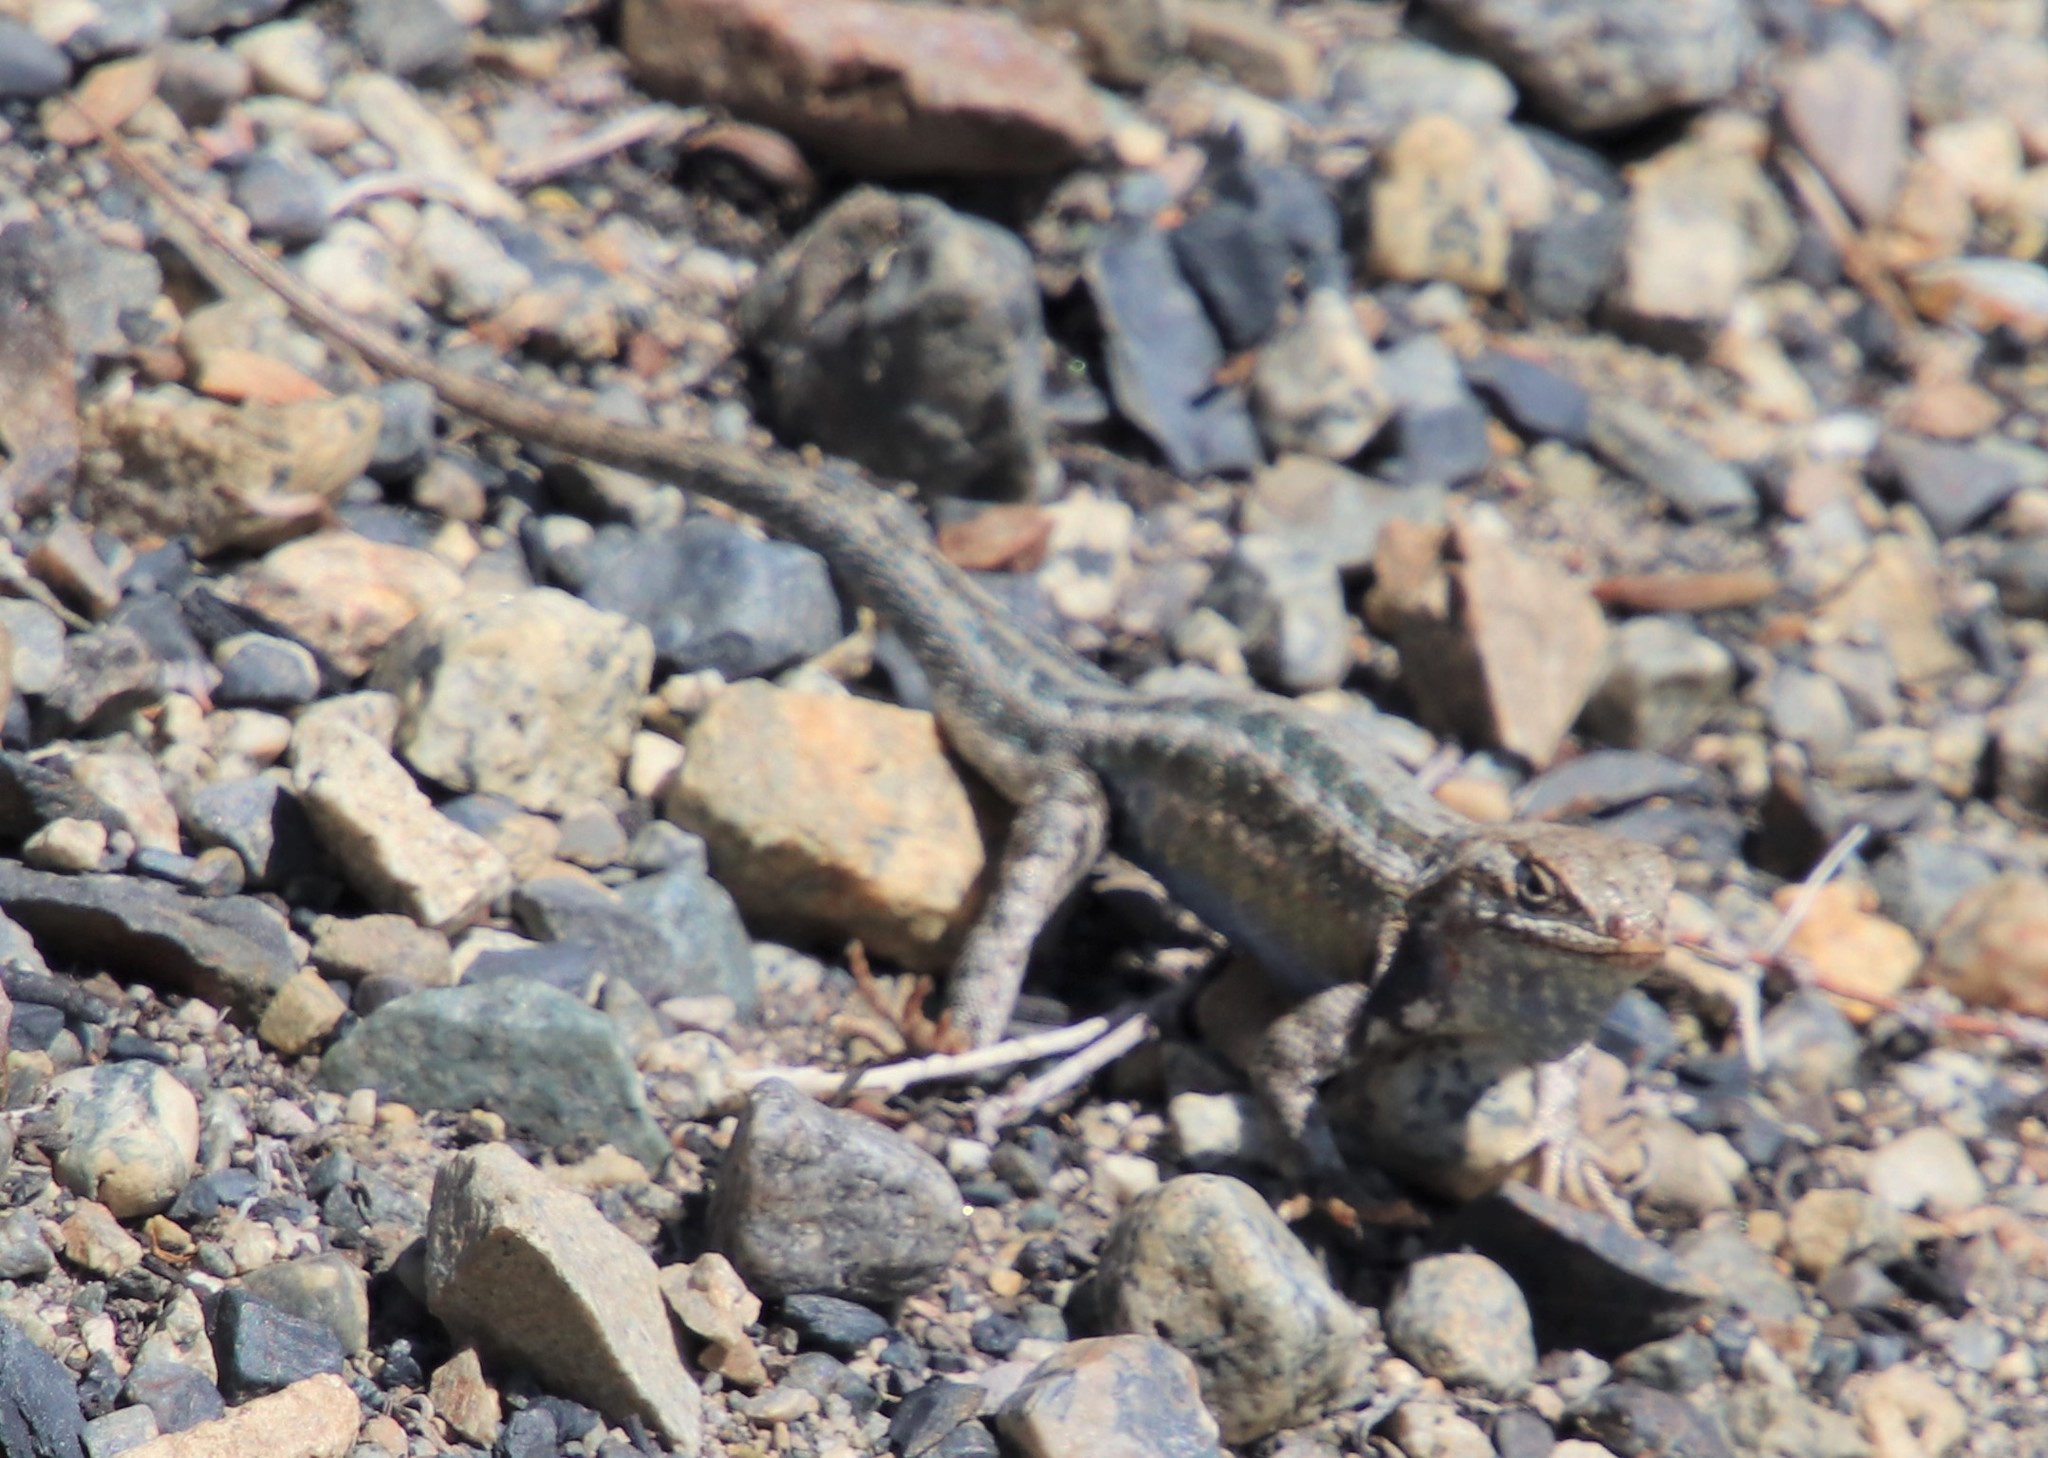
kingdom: Animalia
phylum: Chordata
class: Squamata
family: Phrynosomatidae
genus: Sceloporus
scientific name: Sceloporus graciosus
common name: Sagebrush lizard
